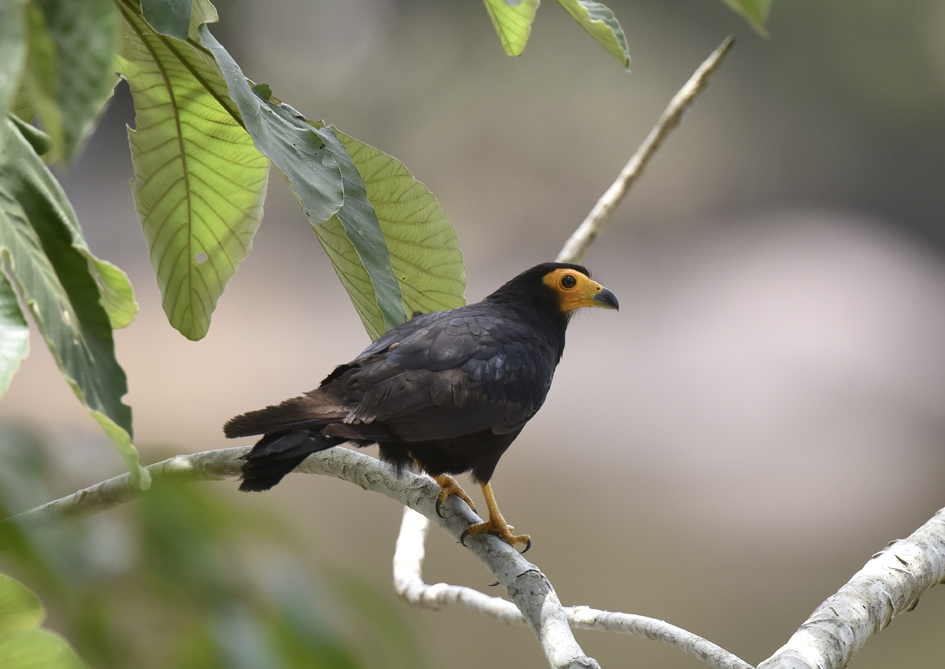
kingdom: Animalia
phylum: Chordata
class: Aves
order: Falconiformes
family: Falconidae
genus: Daptrius
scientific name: Daptrius ater
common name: Black caracara
